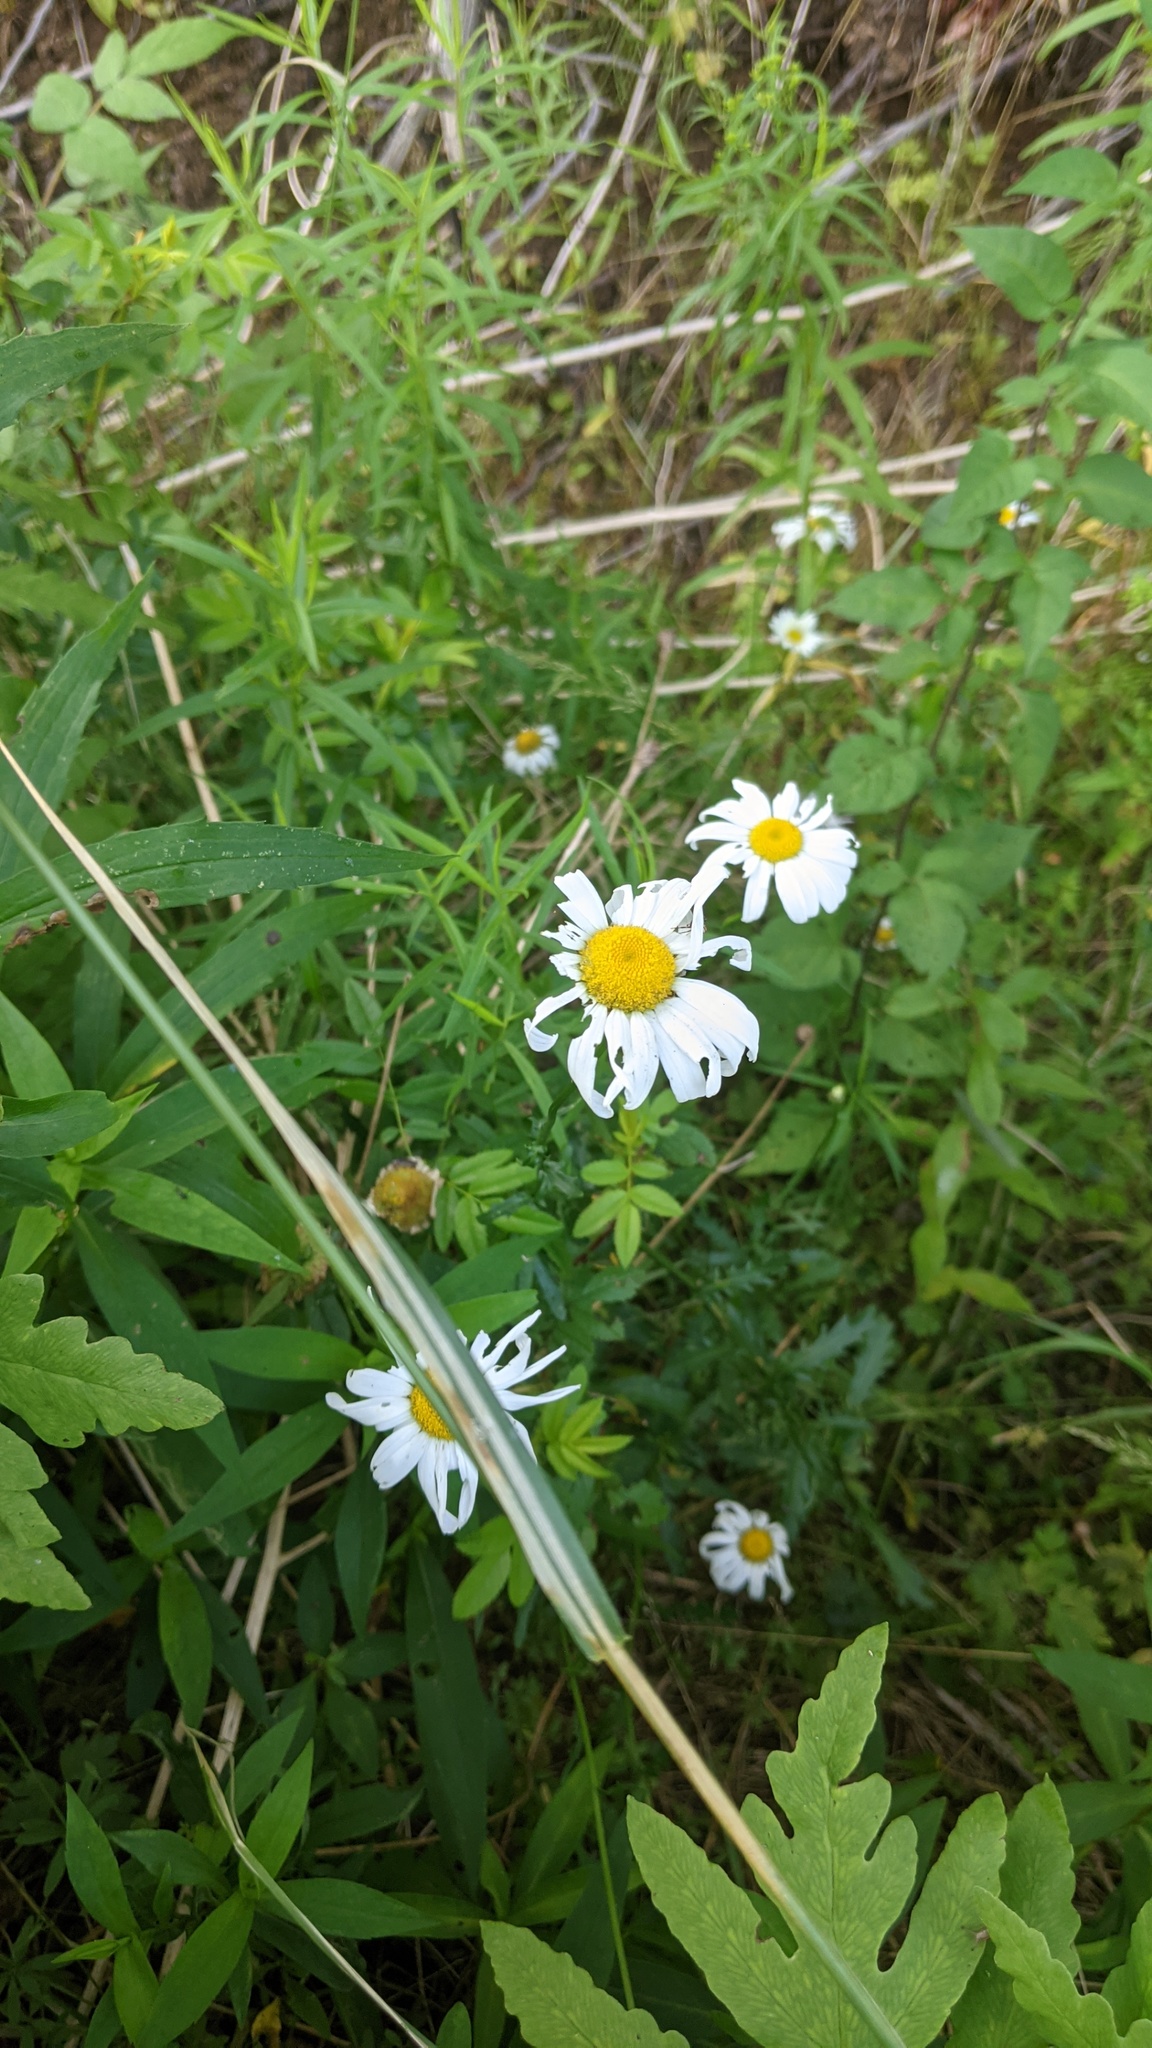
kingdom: Plantae
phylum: Tracheophyta
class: Magnoliopsida
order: Asterales
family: Asteraceae
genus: Leucanthemum
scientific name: Leucanthemum vulgare
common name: Oxeye daisy
